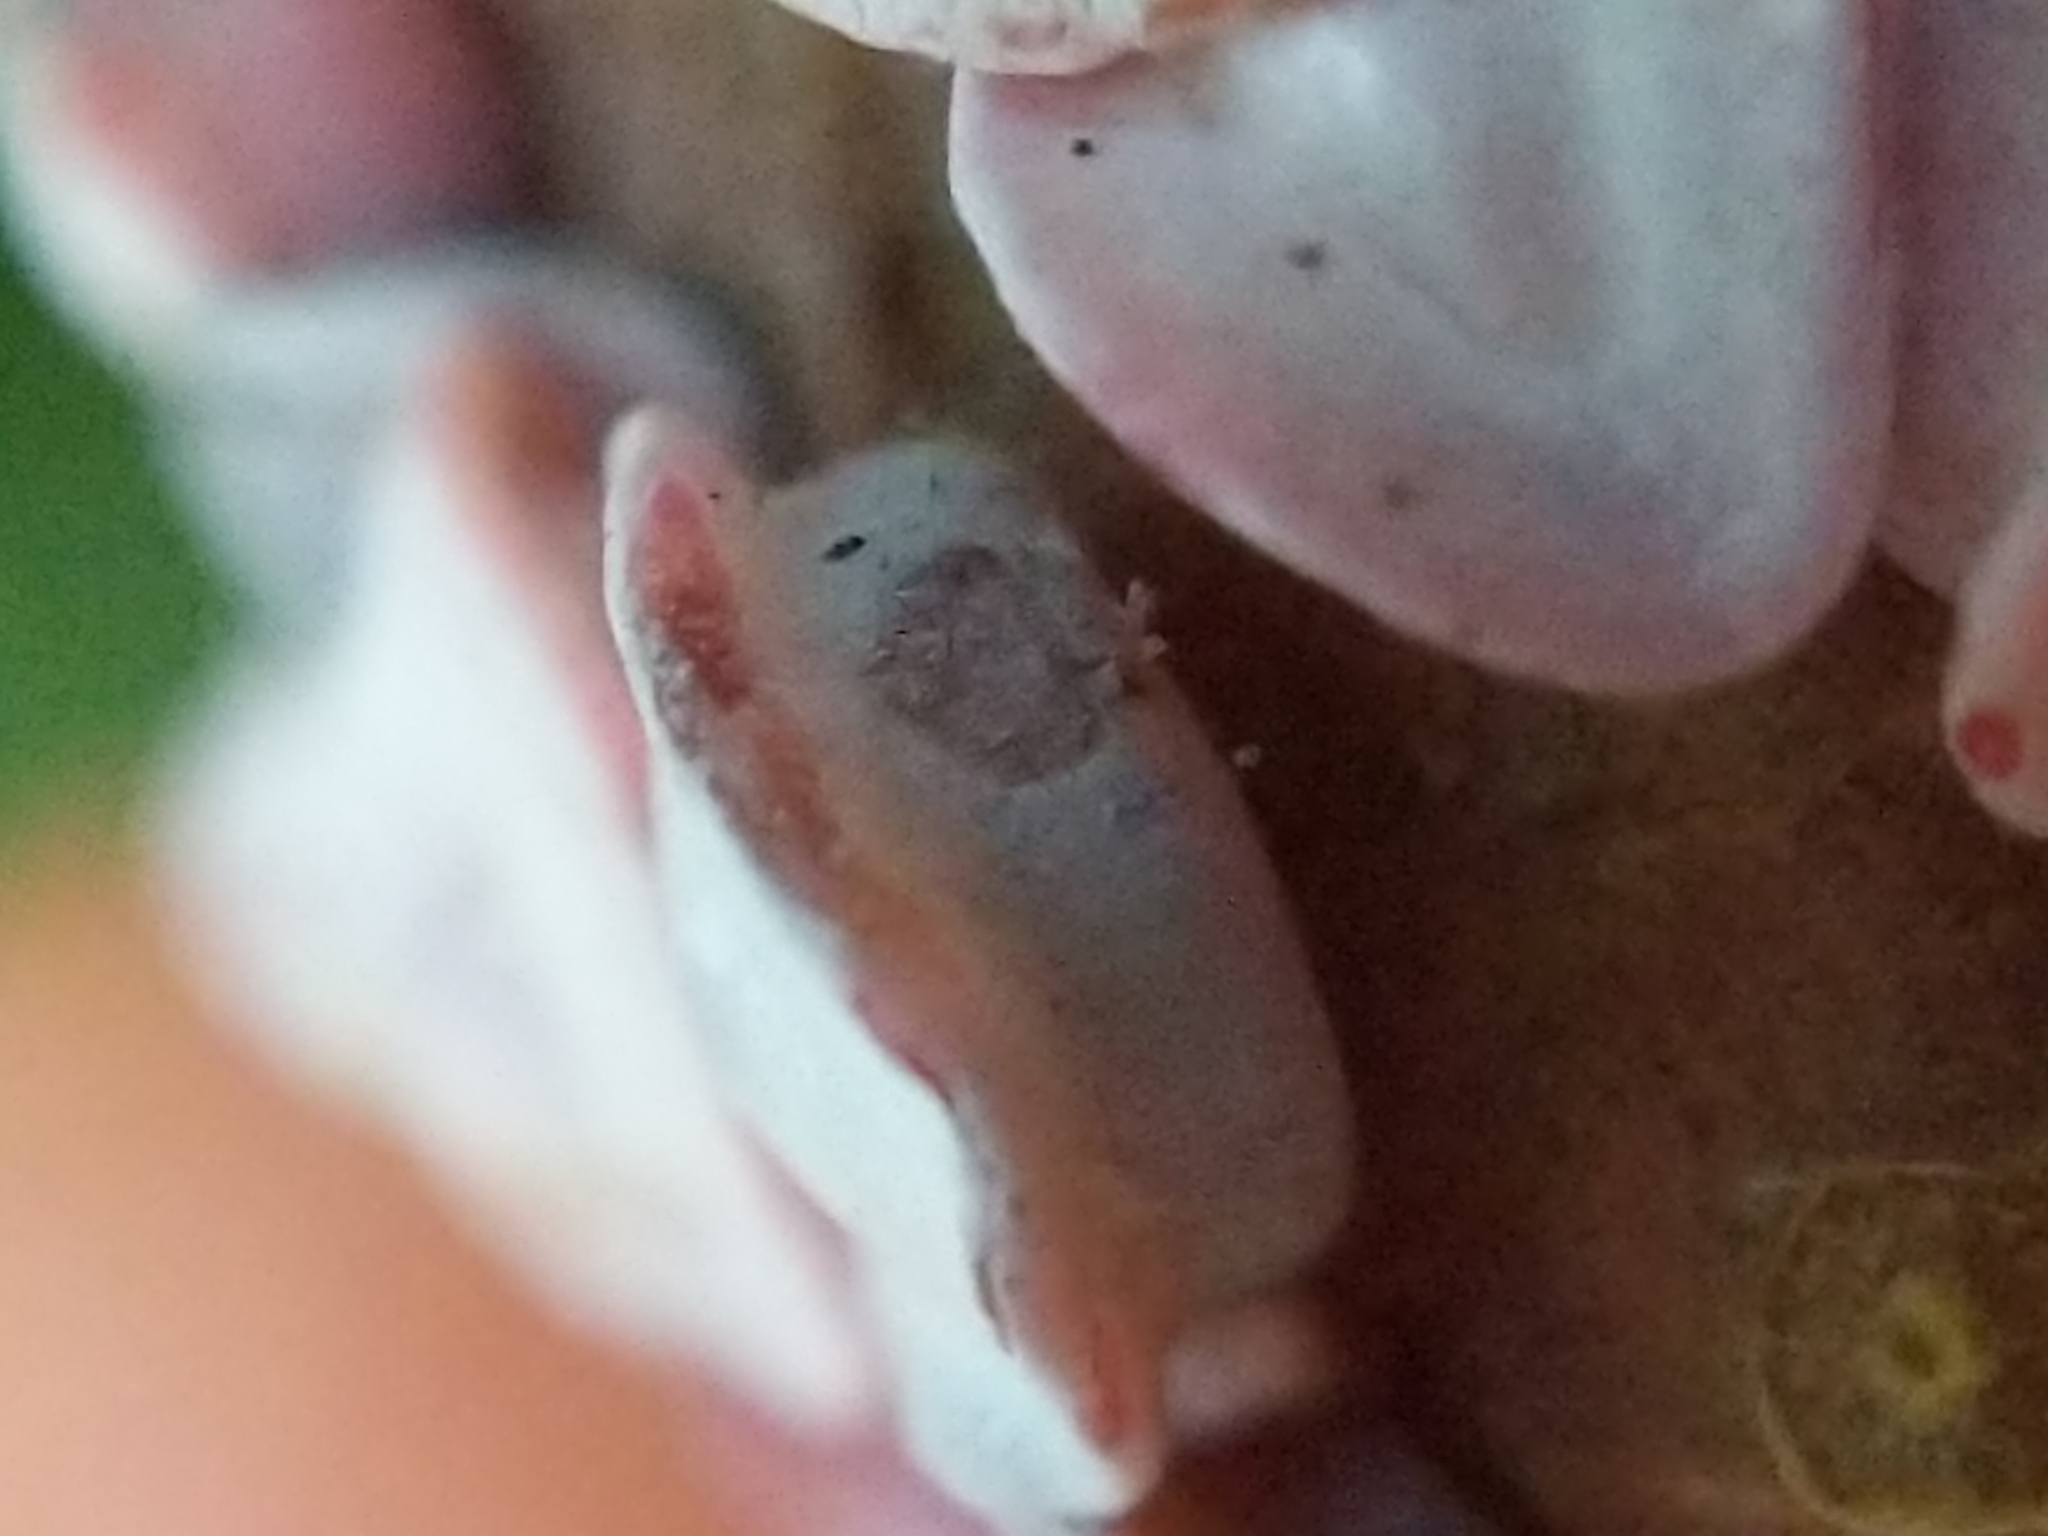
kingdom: Animalia
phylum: Arthropoda
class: Insecta
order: Hymenoptera
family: Cynipidae
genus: Phylloteras
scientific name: Phylloteras poculum
